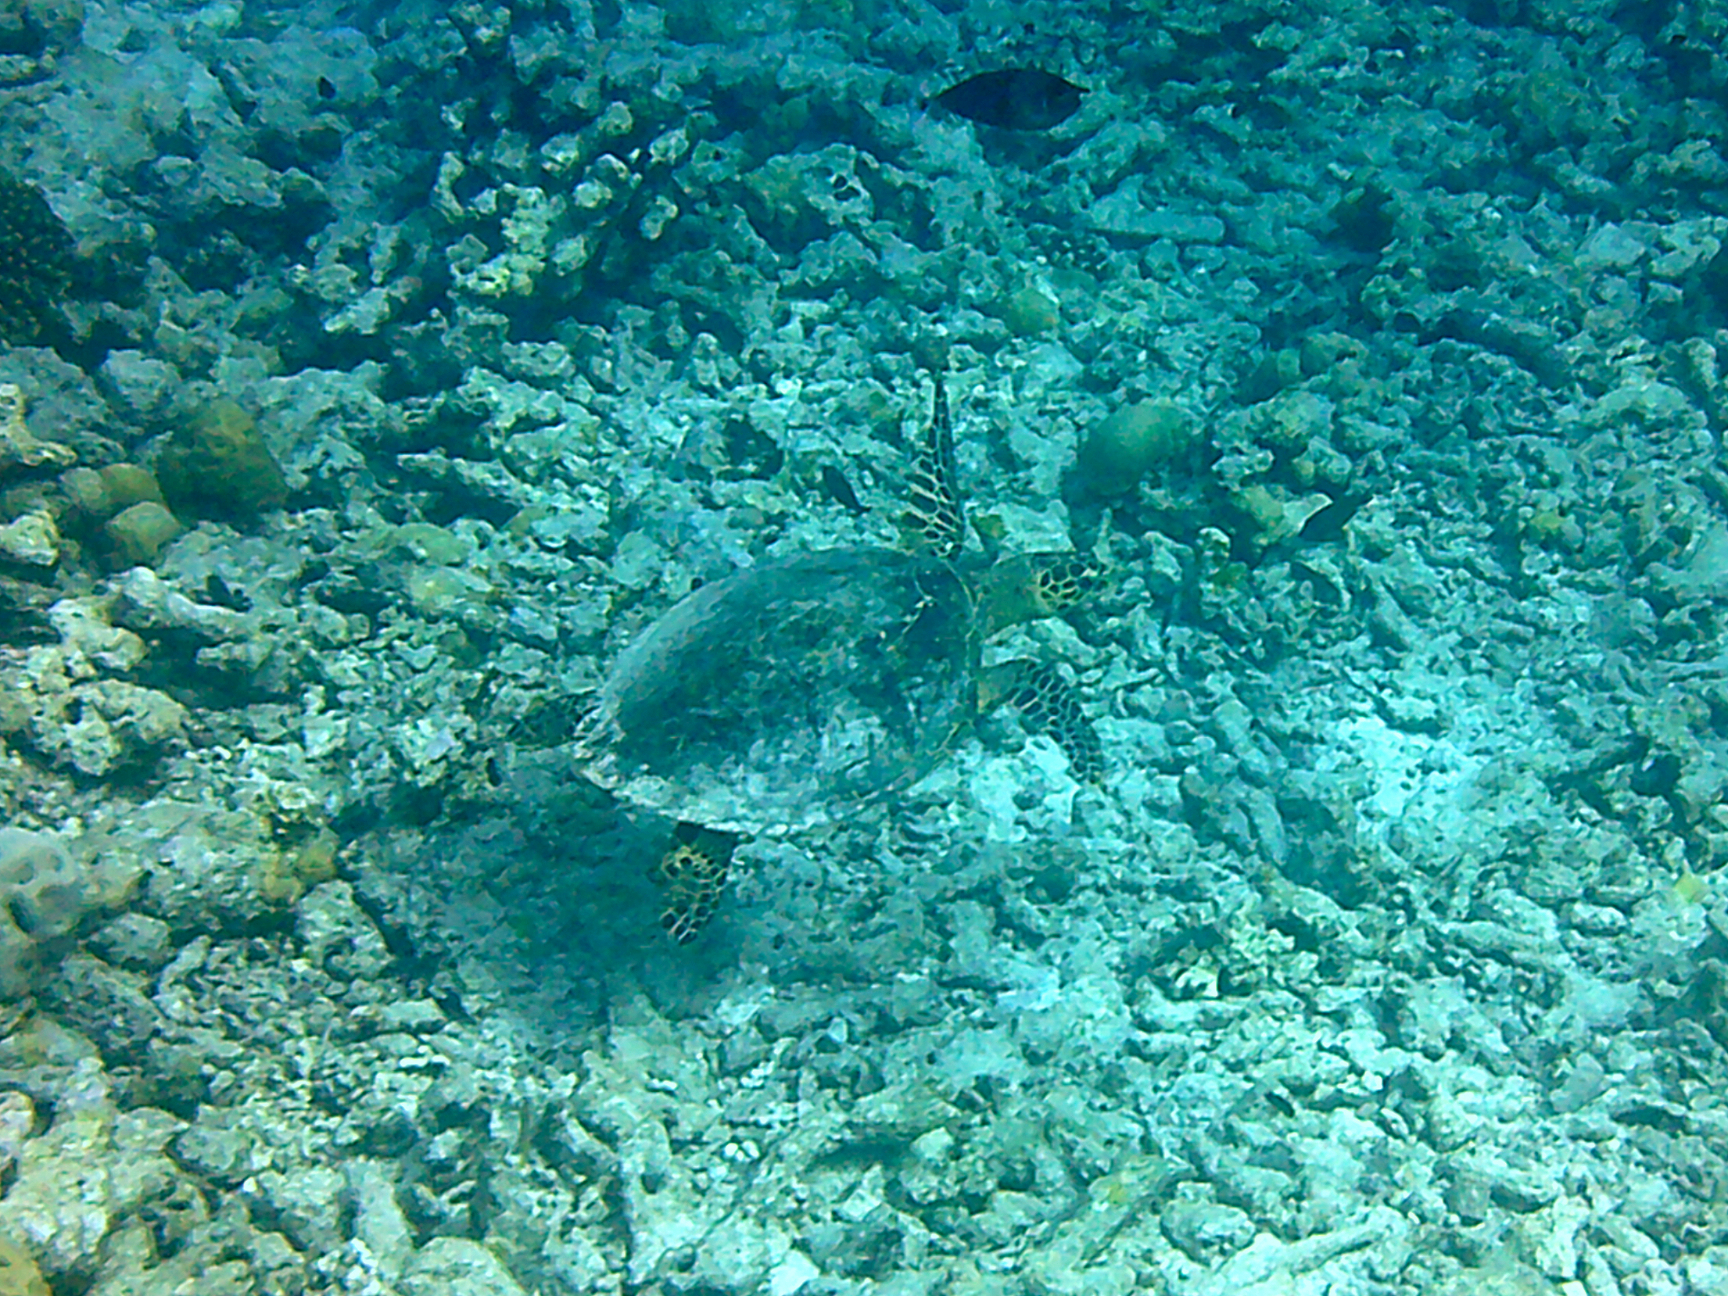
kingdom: Animalia
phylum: Chordata
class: Testudines
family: Cheloniidae
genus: Eretmochelys
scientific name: Eretmochelys imbricata
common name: Hawksbill turtle
